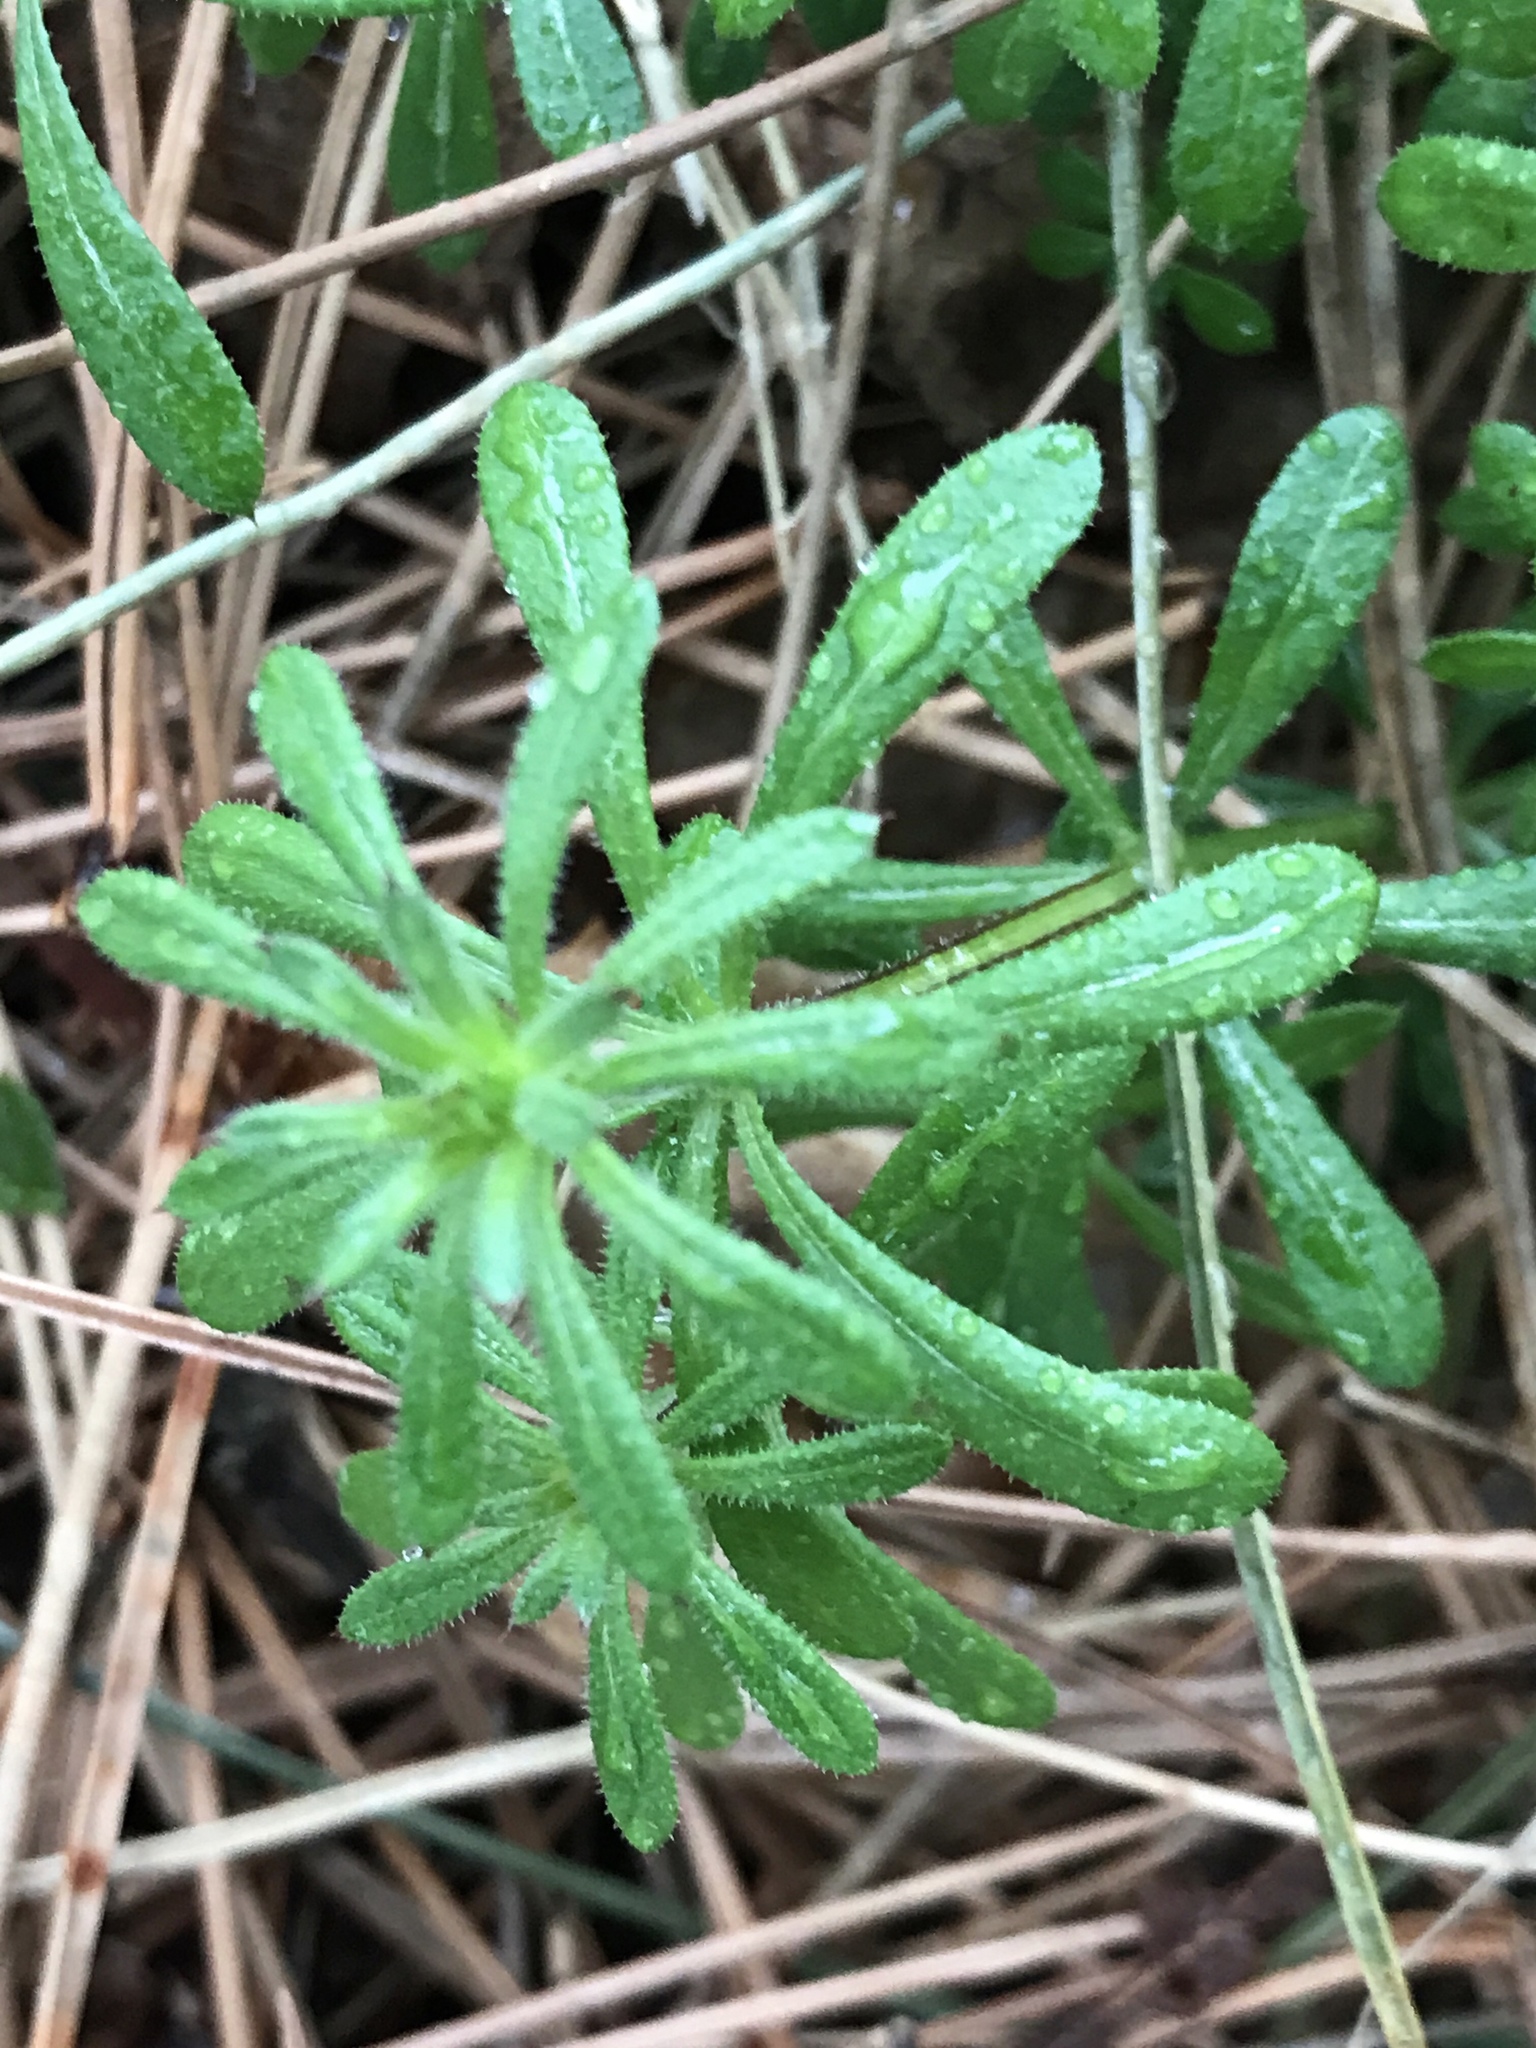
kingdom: Plantae
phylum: Tracheophyta
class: Magnoliopsida
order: Gentianales
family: Rubiaceae
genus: Galium
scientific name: Galium aparine
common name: Cleavers
